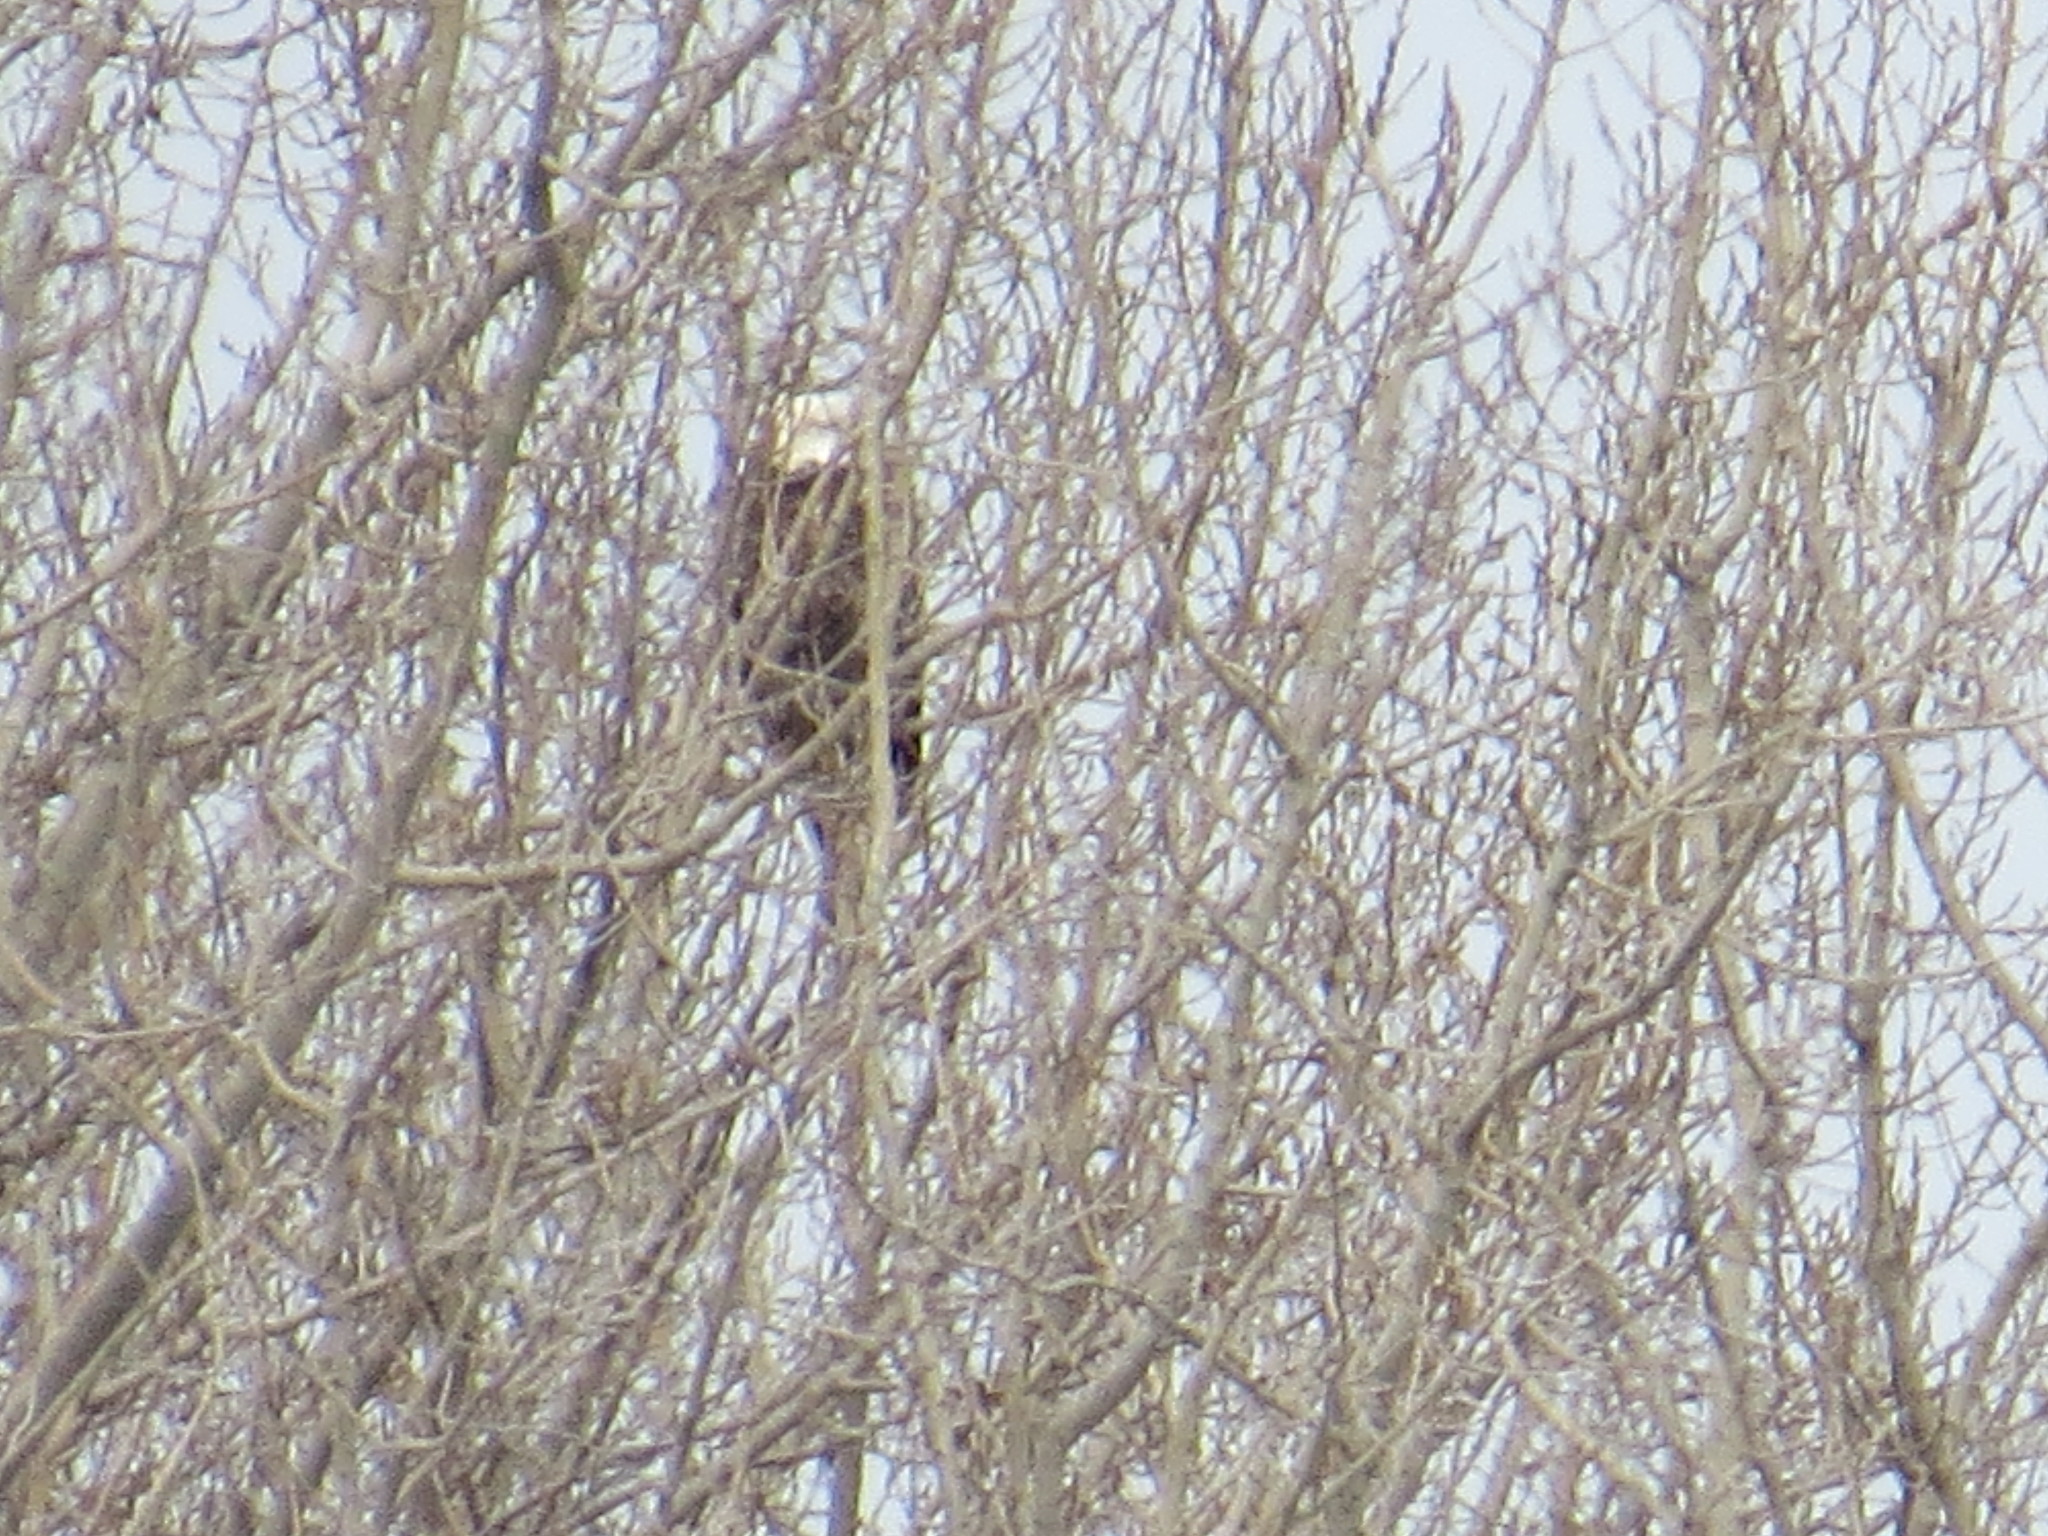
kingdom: Animalia
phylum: Chordata
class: Aves
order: Accipitriformes
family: Accipitridae
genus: Haliaeetus
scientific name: Haliaeetus leucocephalus
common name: Bald eagle
